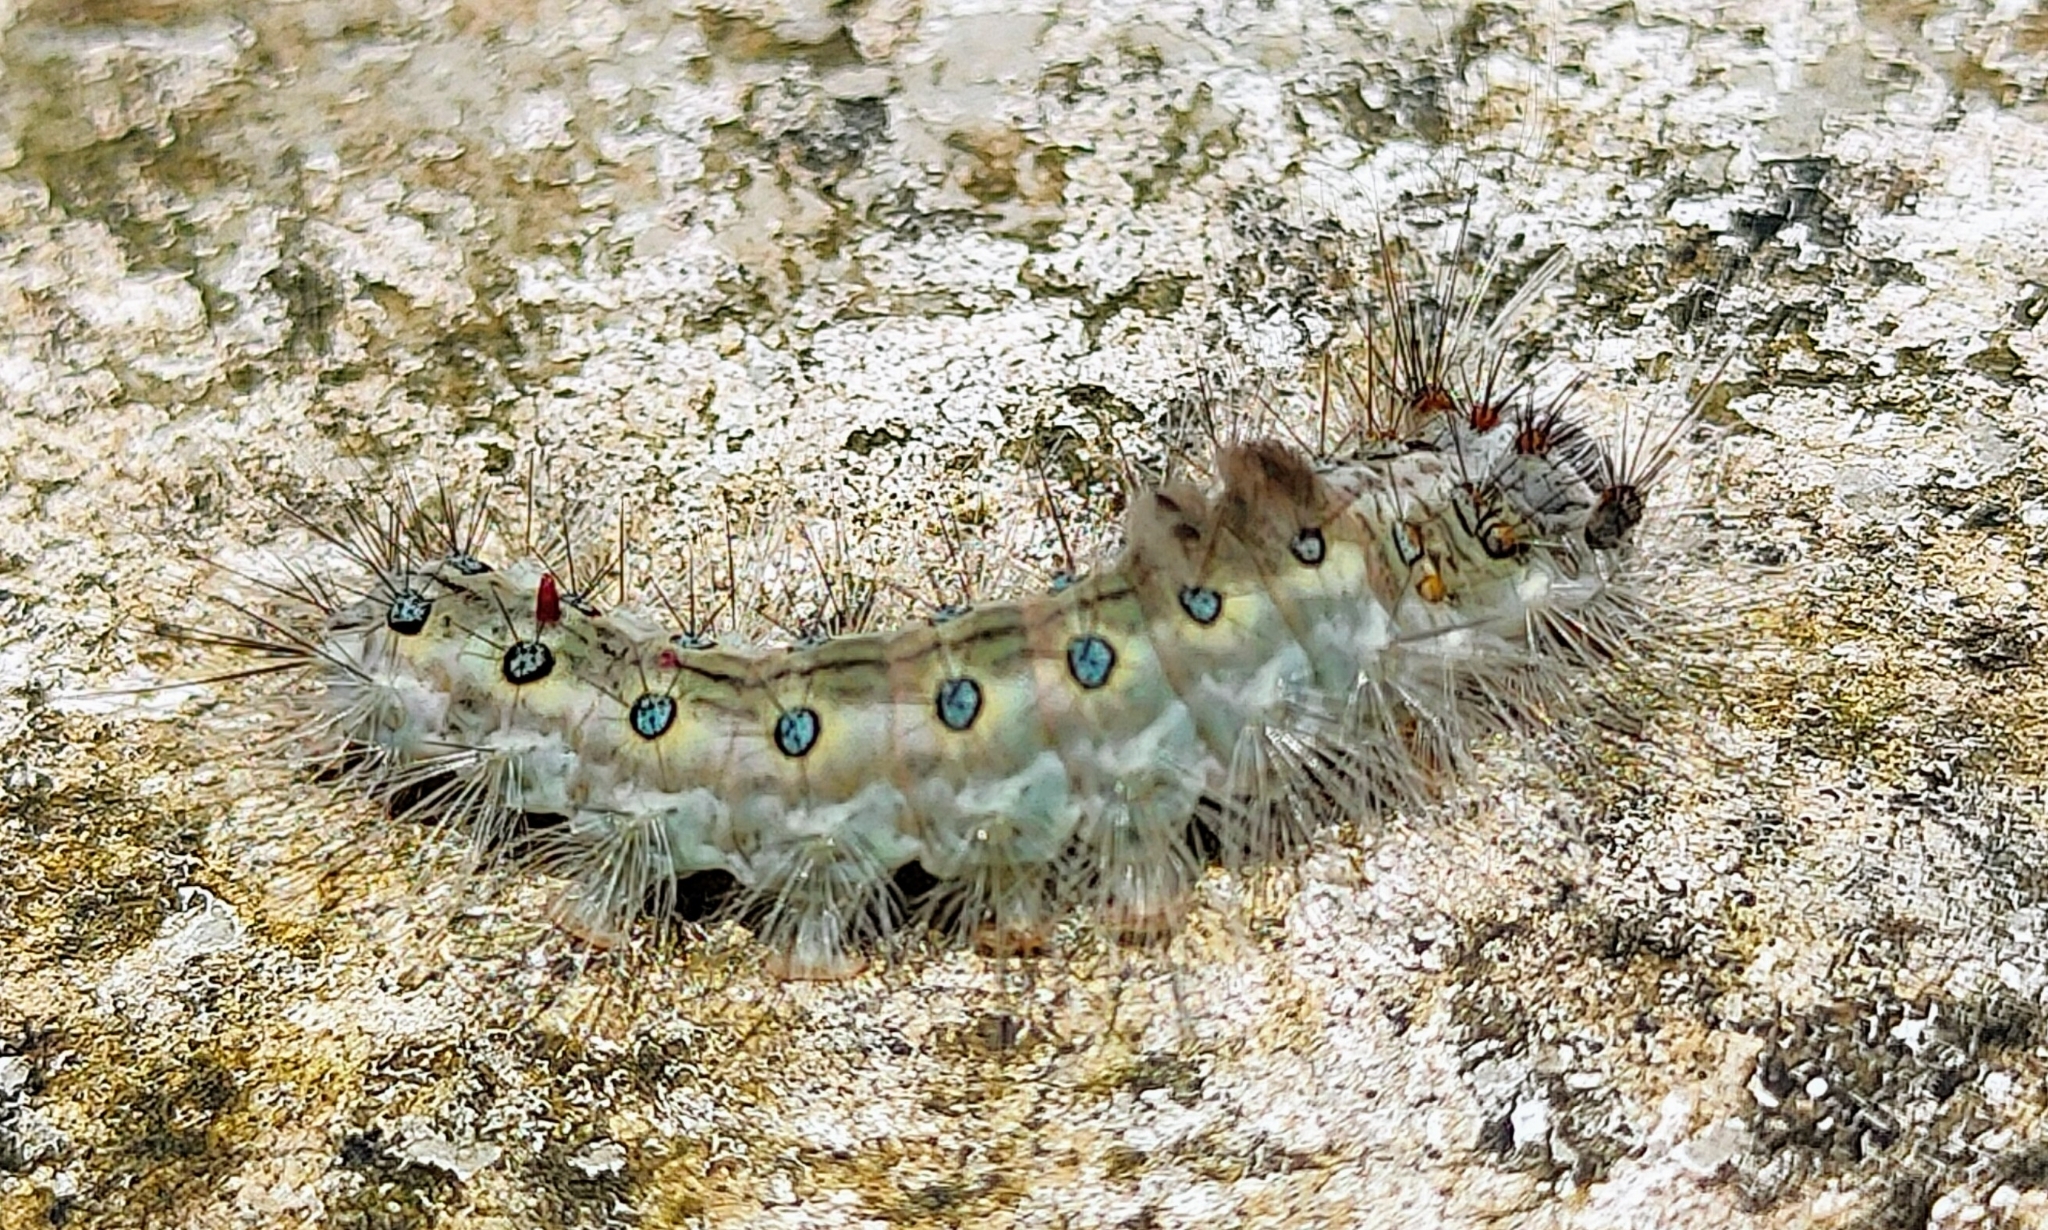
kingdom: Animalia
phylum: Arthropoda
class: Insecta
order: Lepidoptera
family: Erebidae
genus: Perina
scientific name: Perina nuda
